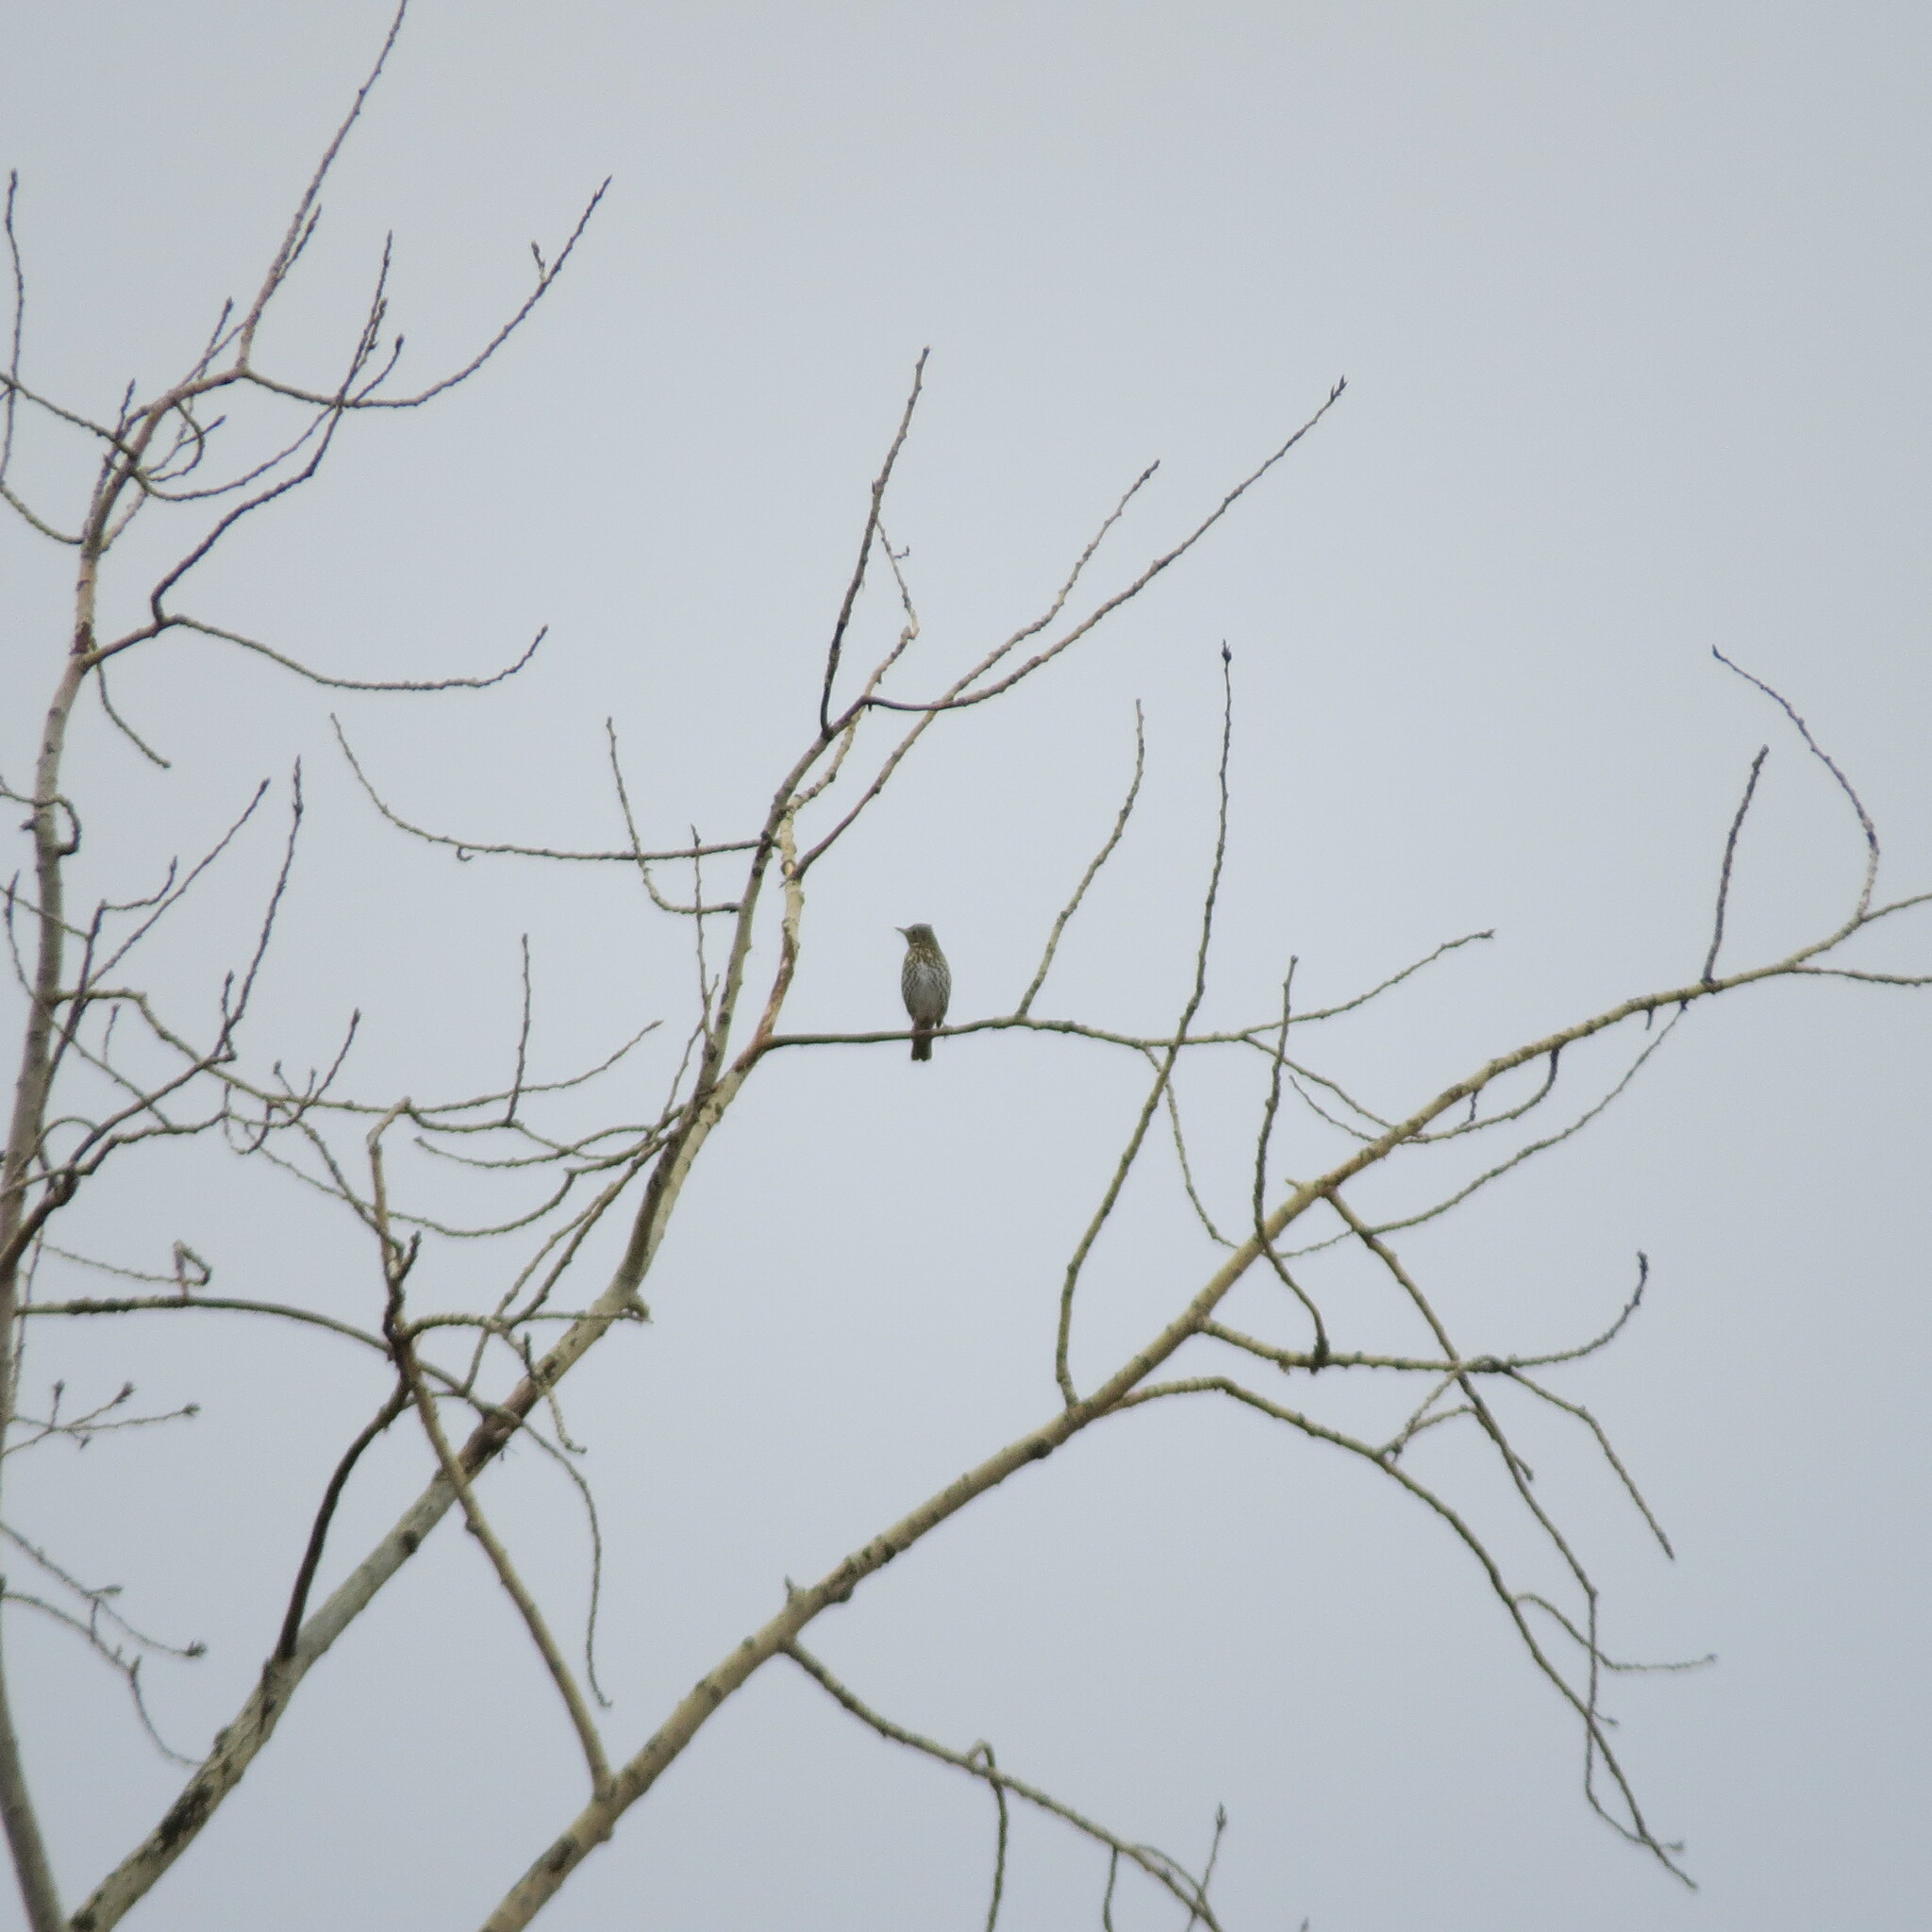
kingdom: Animalia
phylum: Chordata
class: Aves
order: Passeriformes
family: Turdidae
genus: Turdus
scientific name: Turdus philomelos
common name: Song thrush
